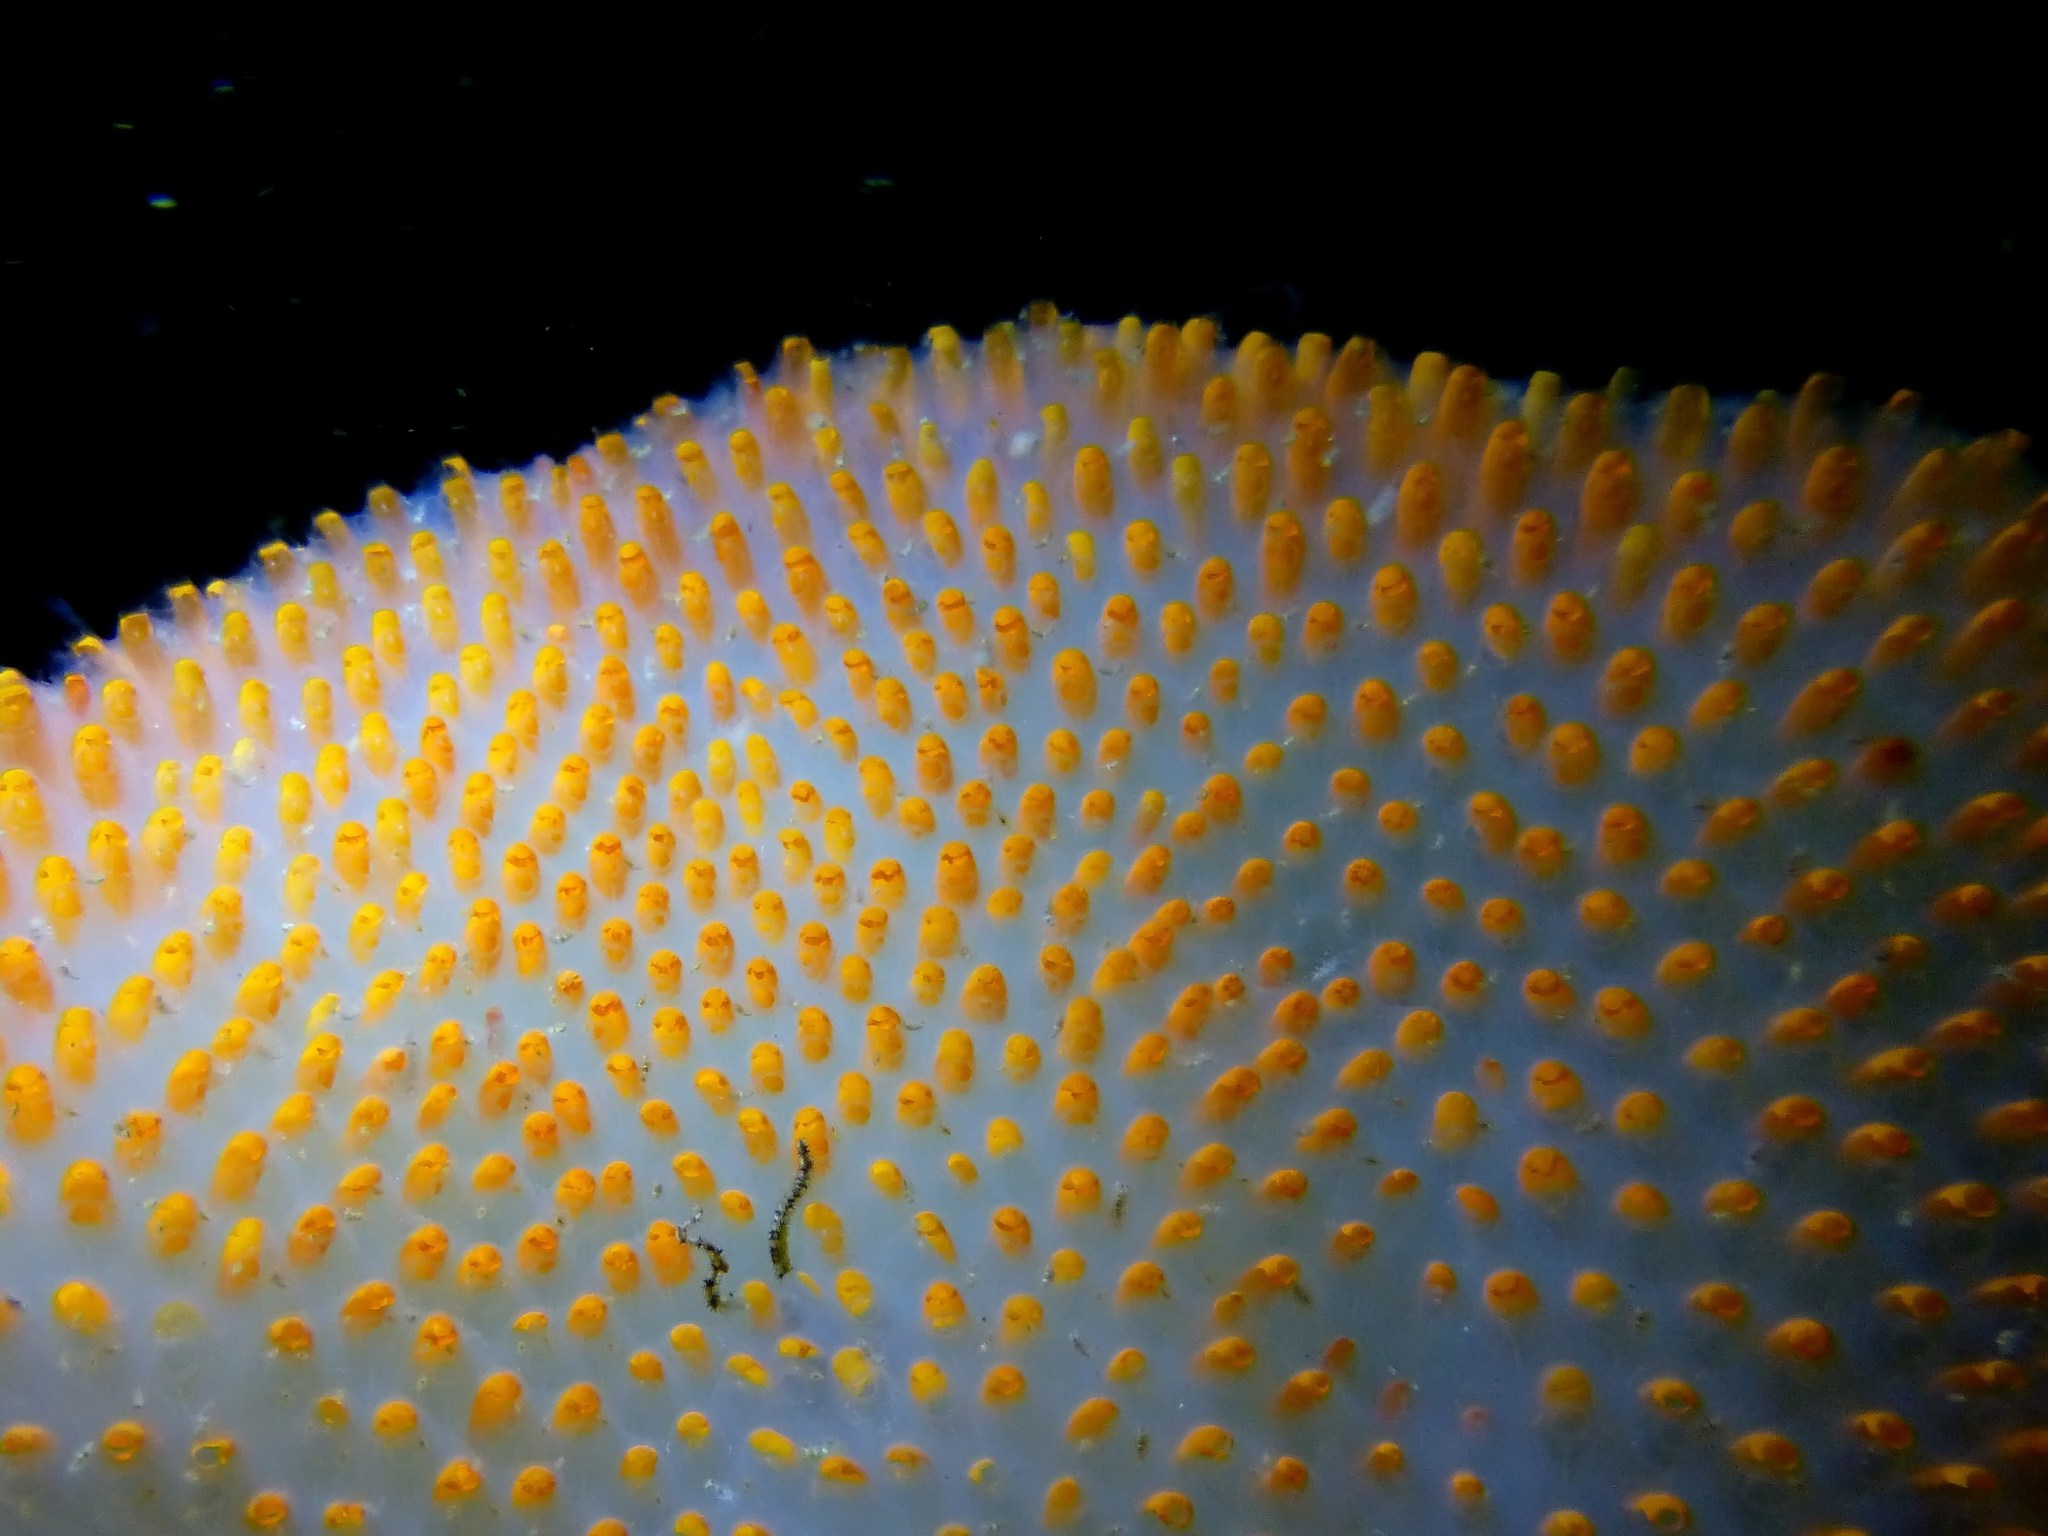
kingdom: Animalia
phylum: Chordata
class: Ascidiacea
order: Aplousobranchia
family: Polycitoridae
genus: Polycitor
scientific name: Polycitor giganteus
